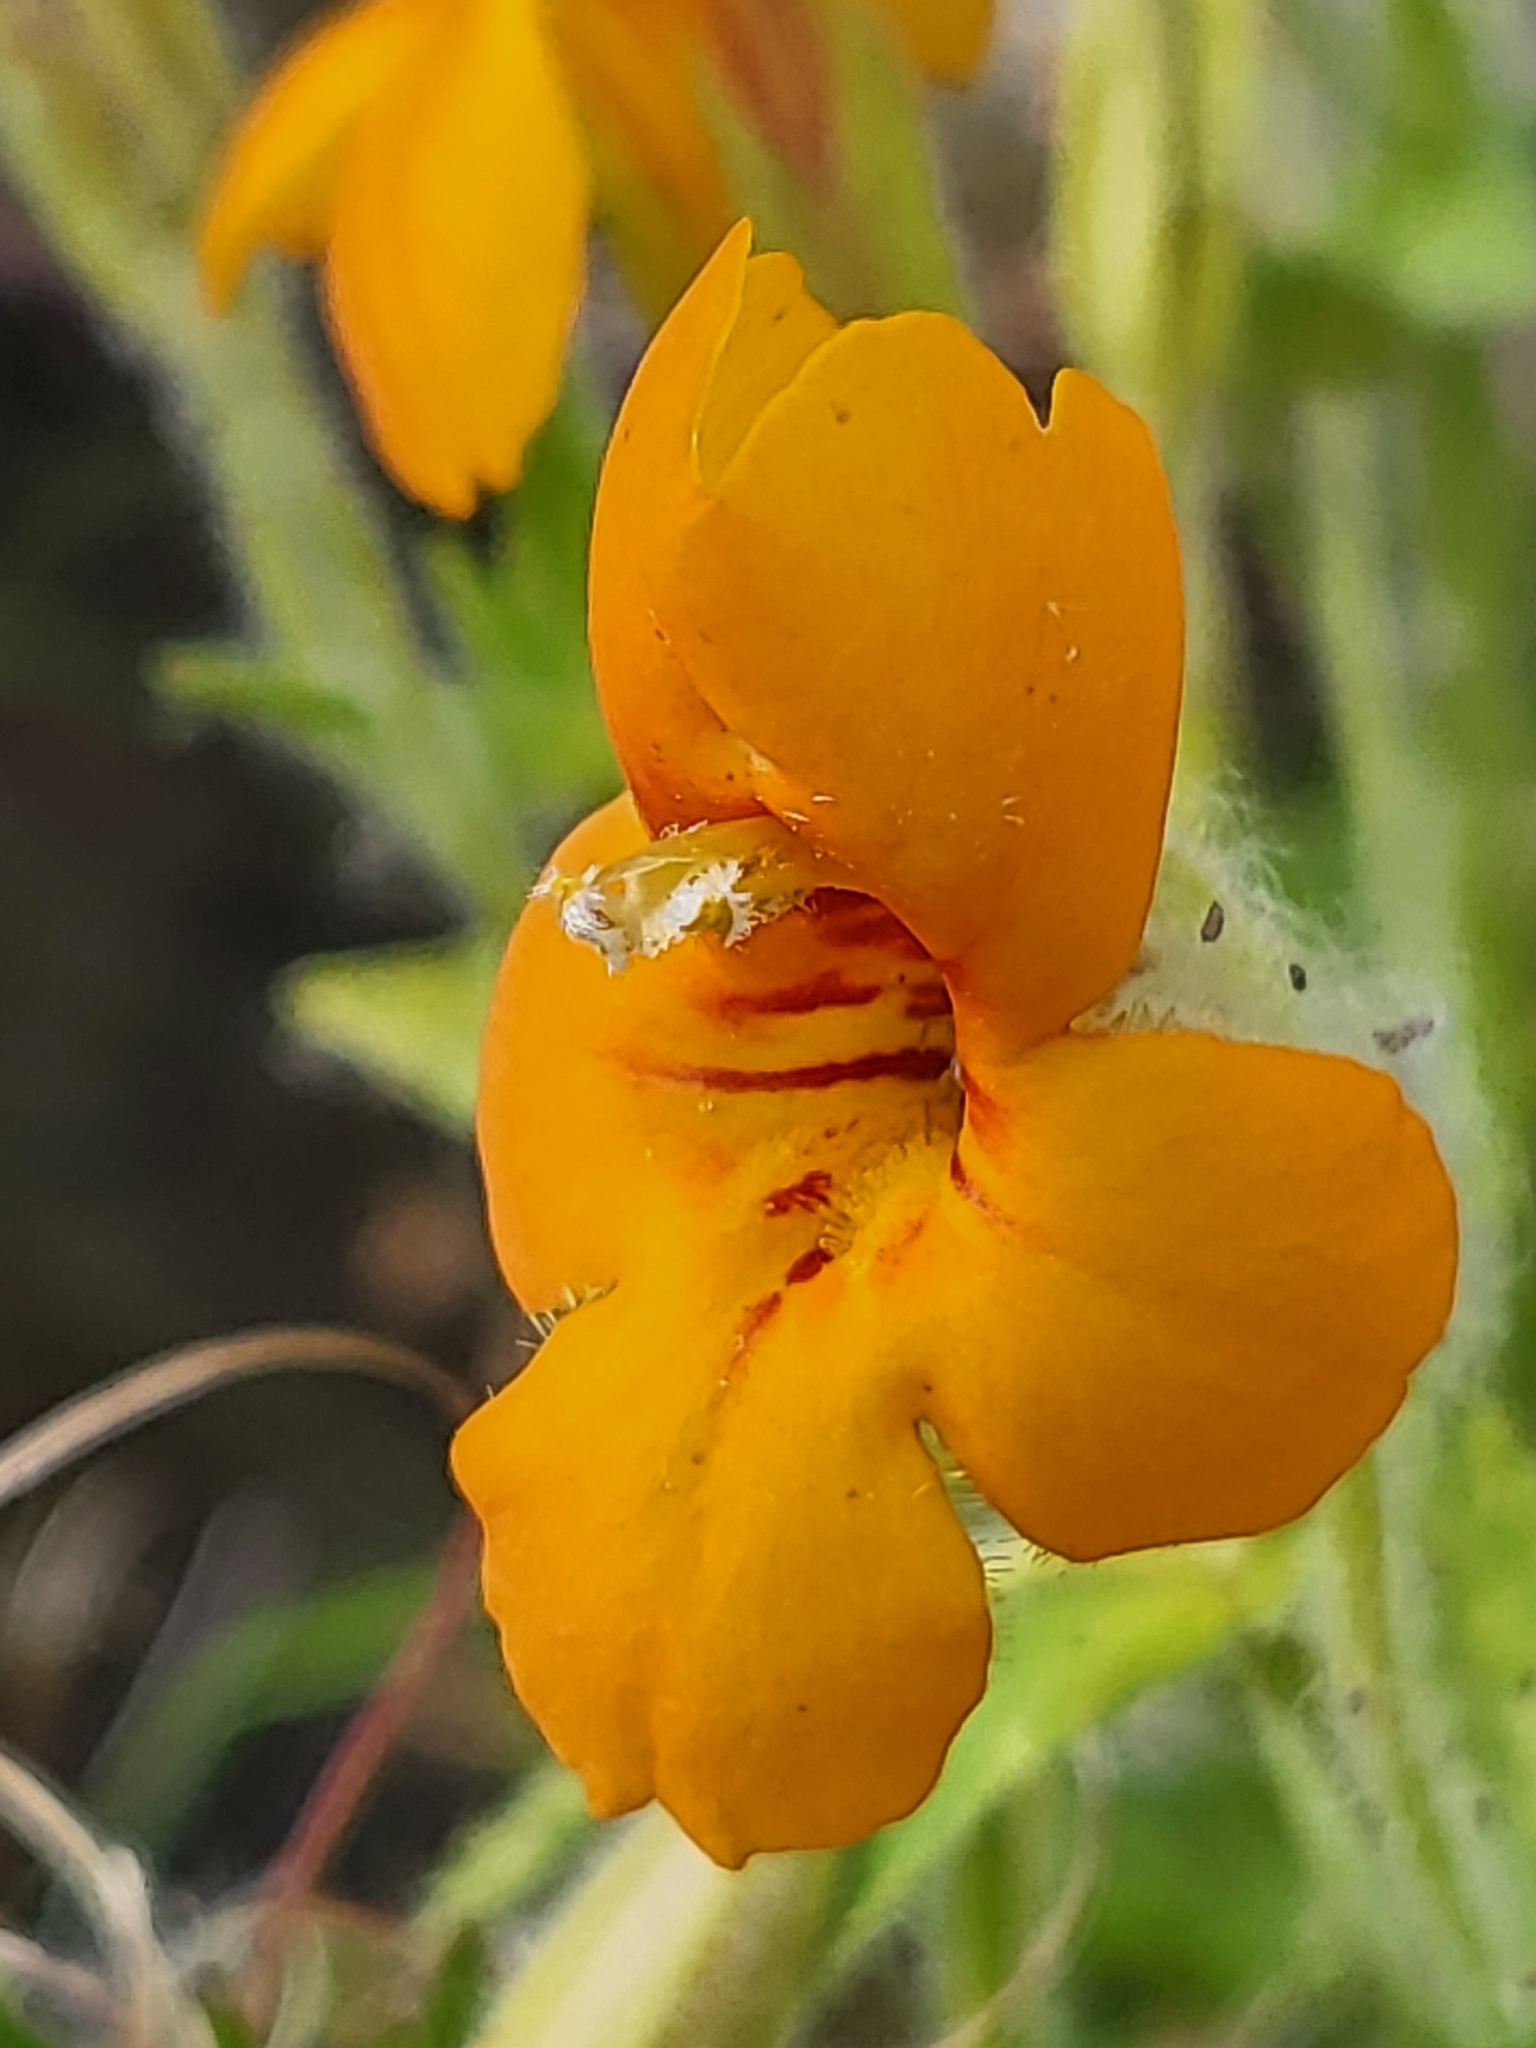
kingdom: Plantae
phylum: Tracheophyta
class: Magnoliopsida
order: Lamiales
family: Phrymaceae
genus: Erythranthe
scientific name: Erythranthe cardinalis
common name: Scarlet monkey-flower
